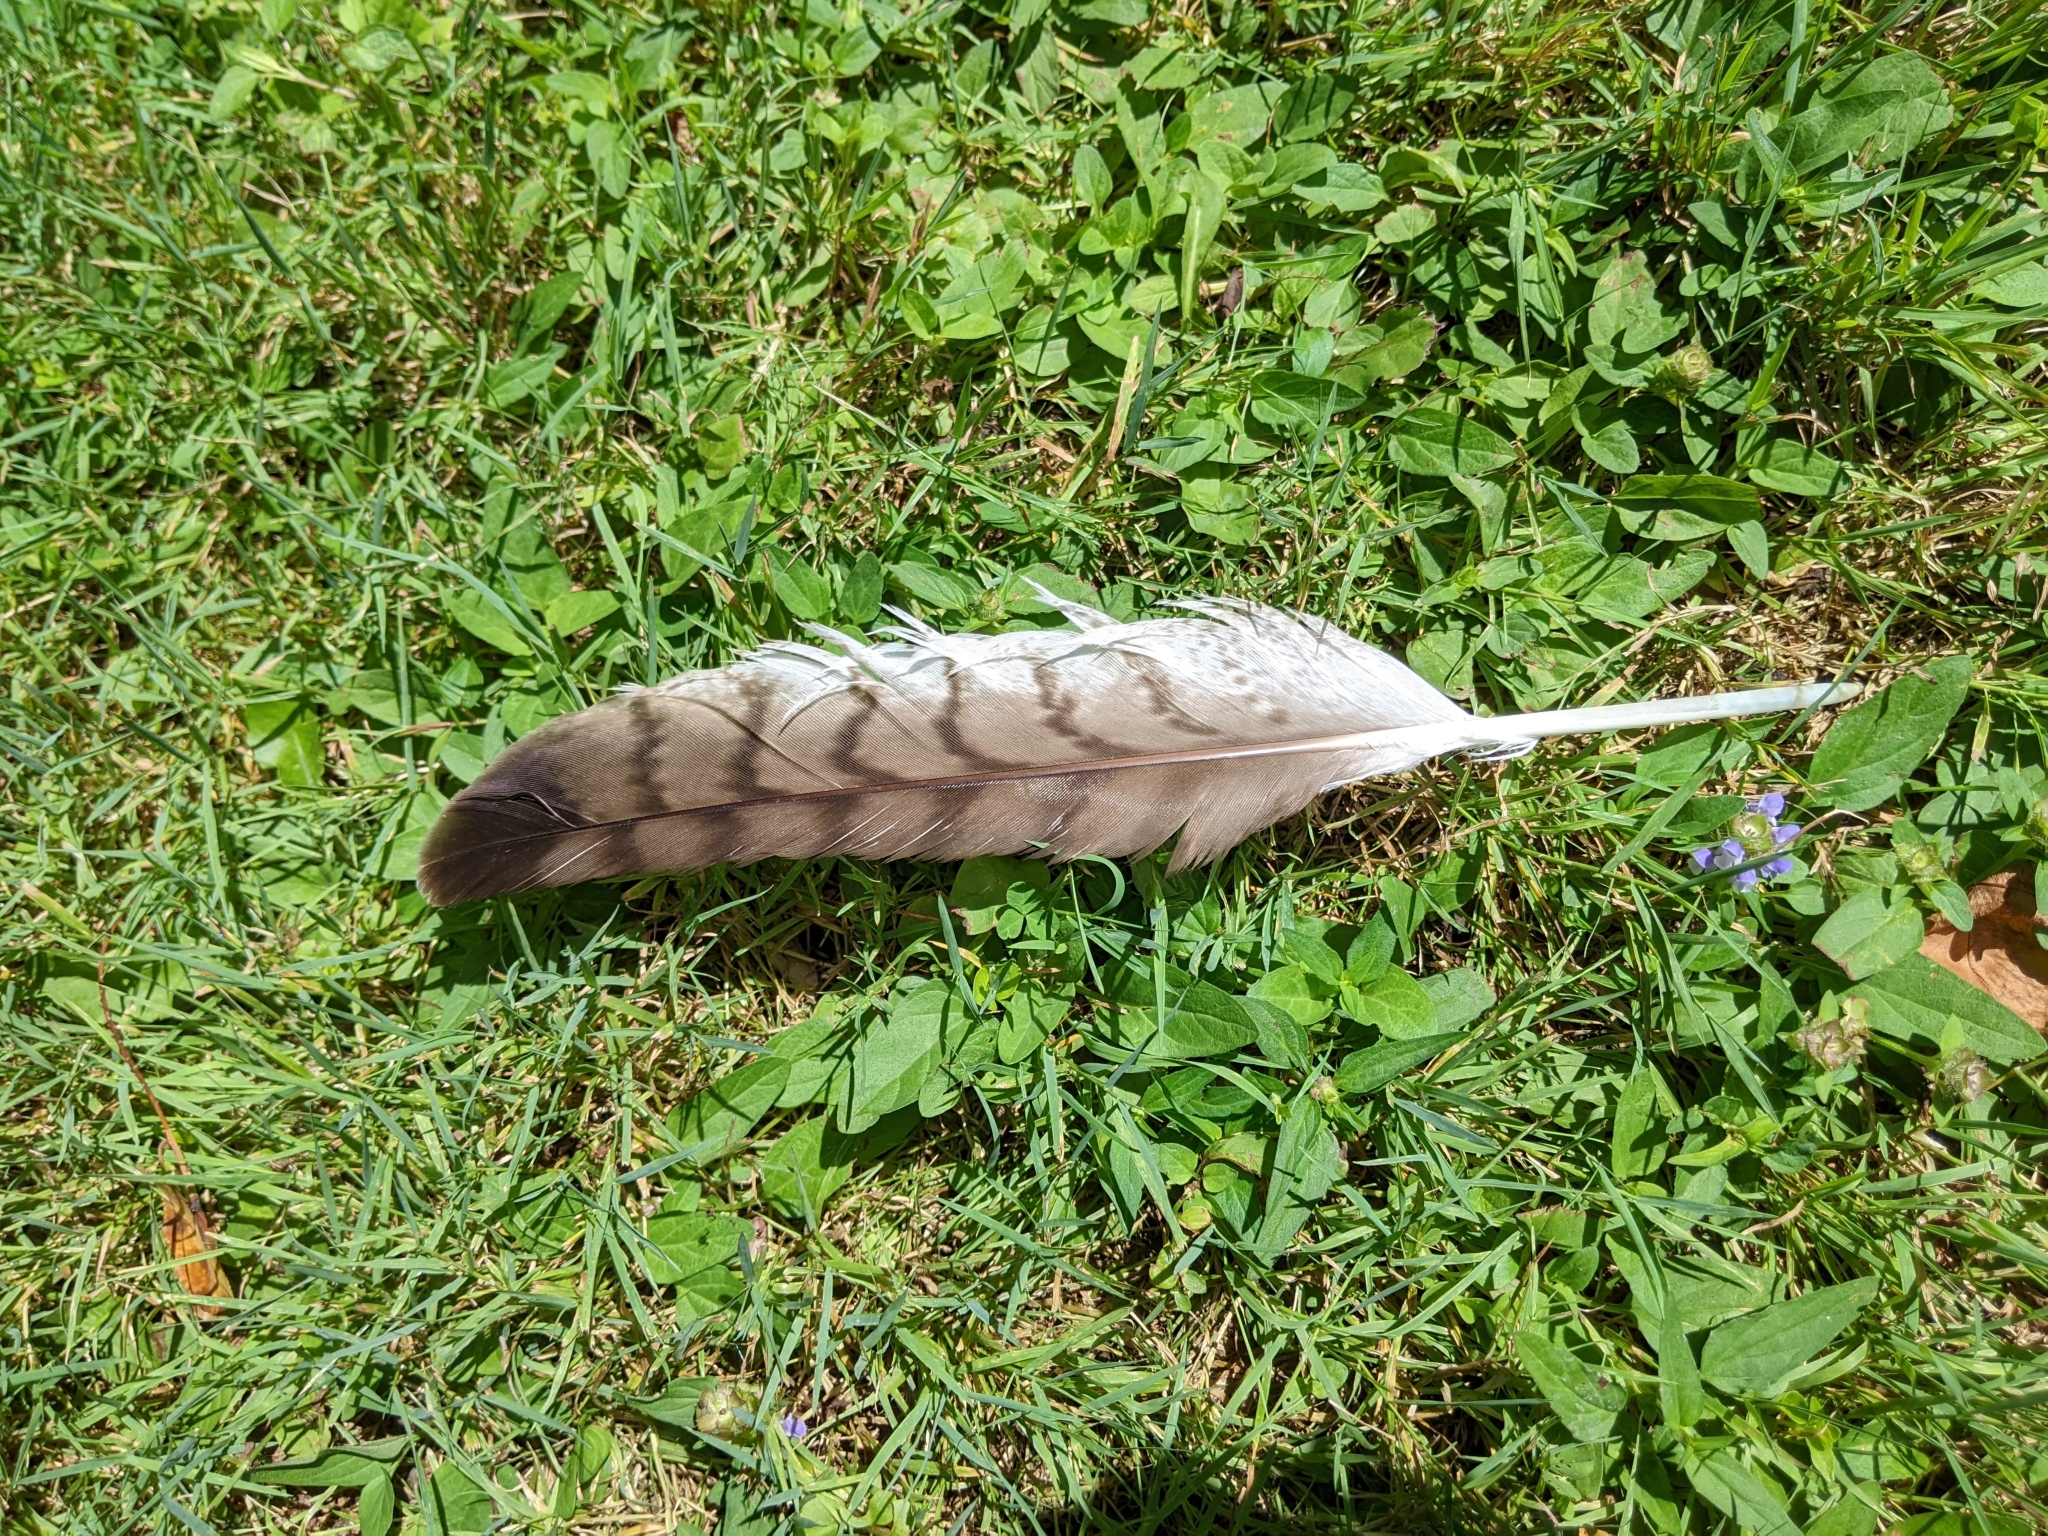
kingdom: Animalia
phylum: Chordata
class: Aves
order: Accipitriformes
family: Accipitridae
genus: Buteo
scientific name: Buteo jamaicensis
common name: Red-tailed hawk
